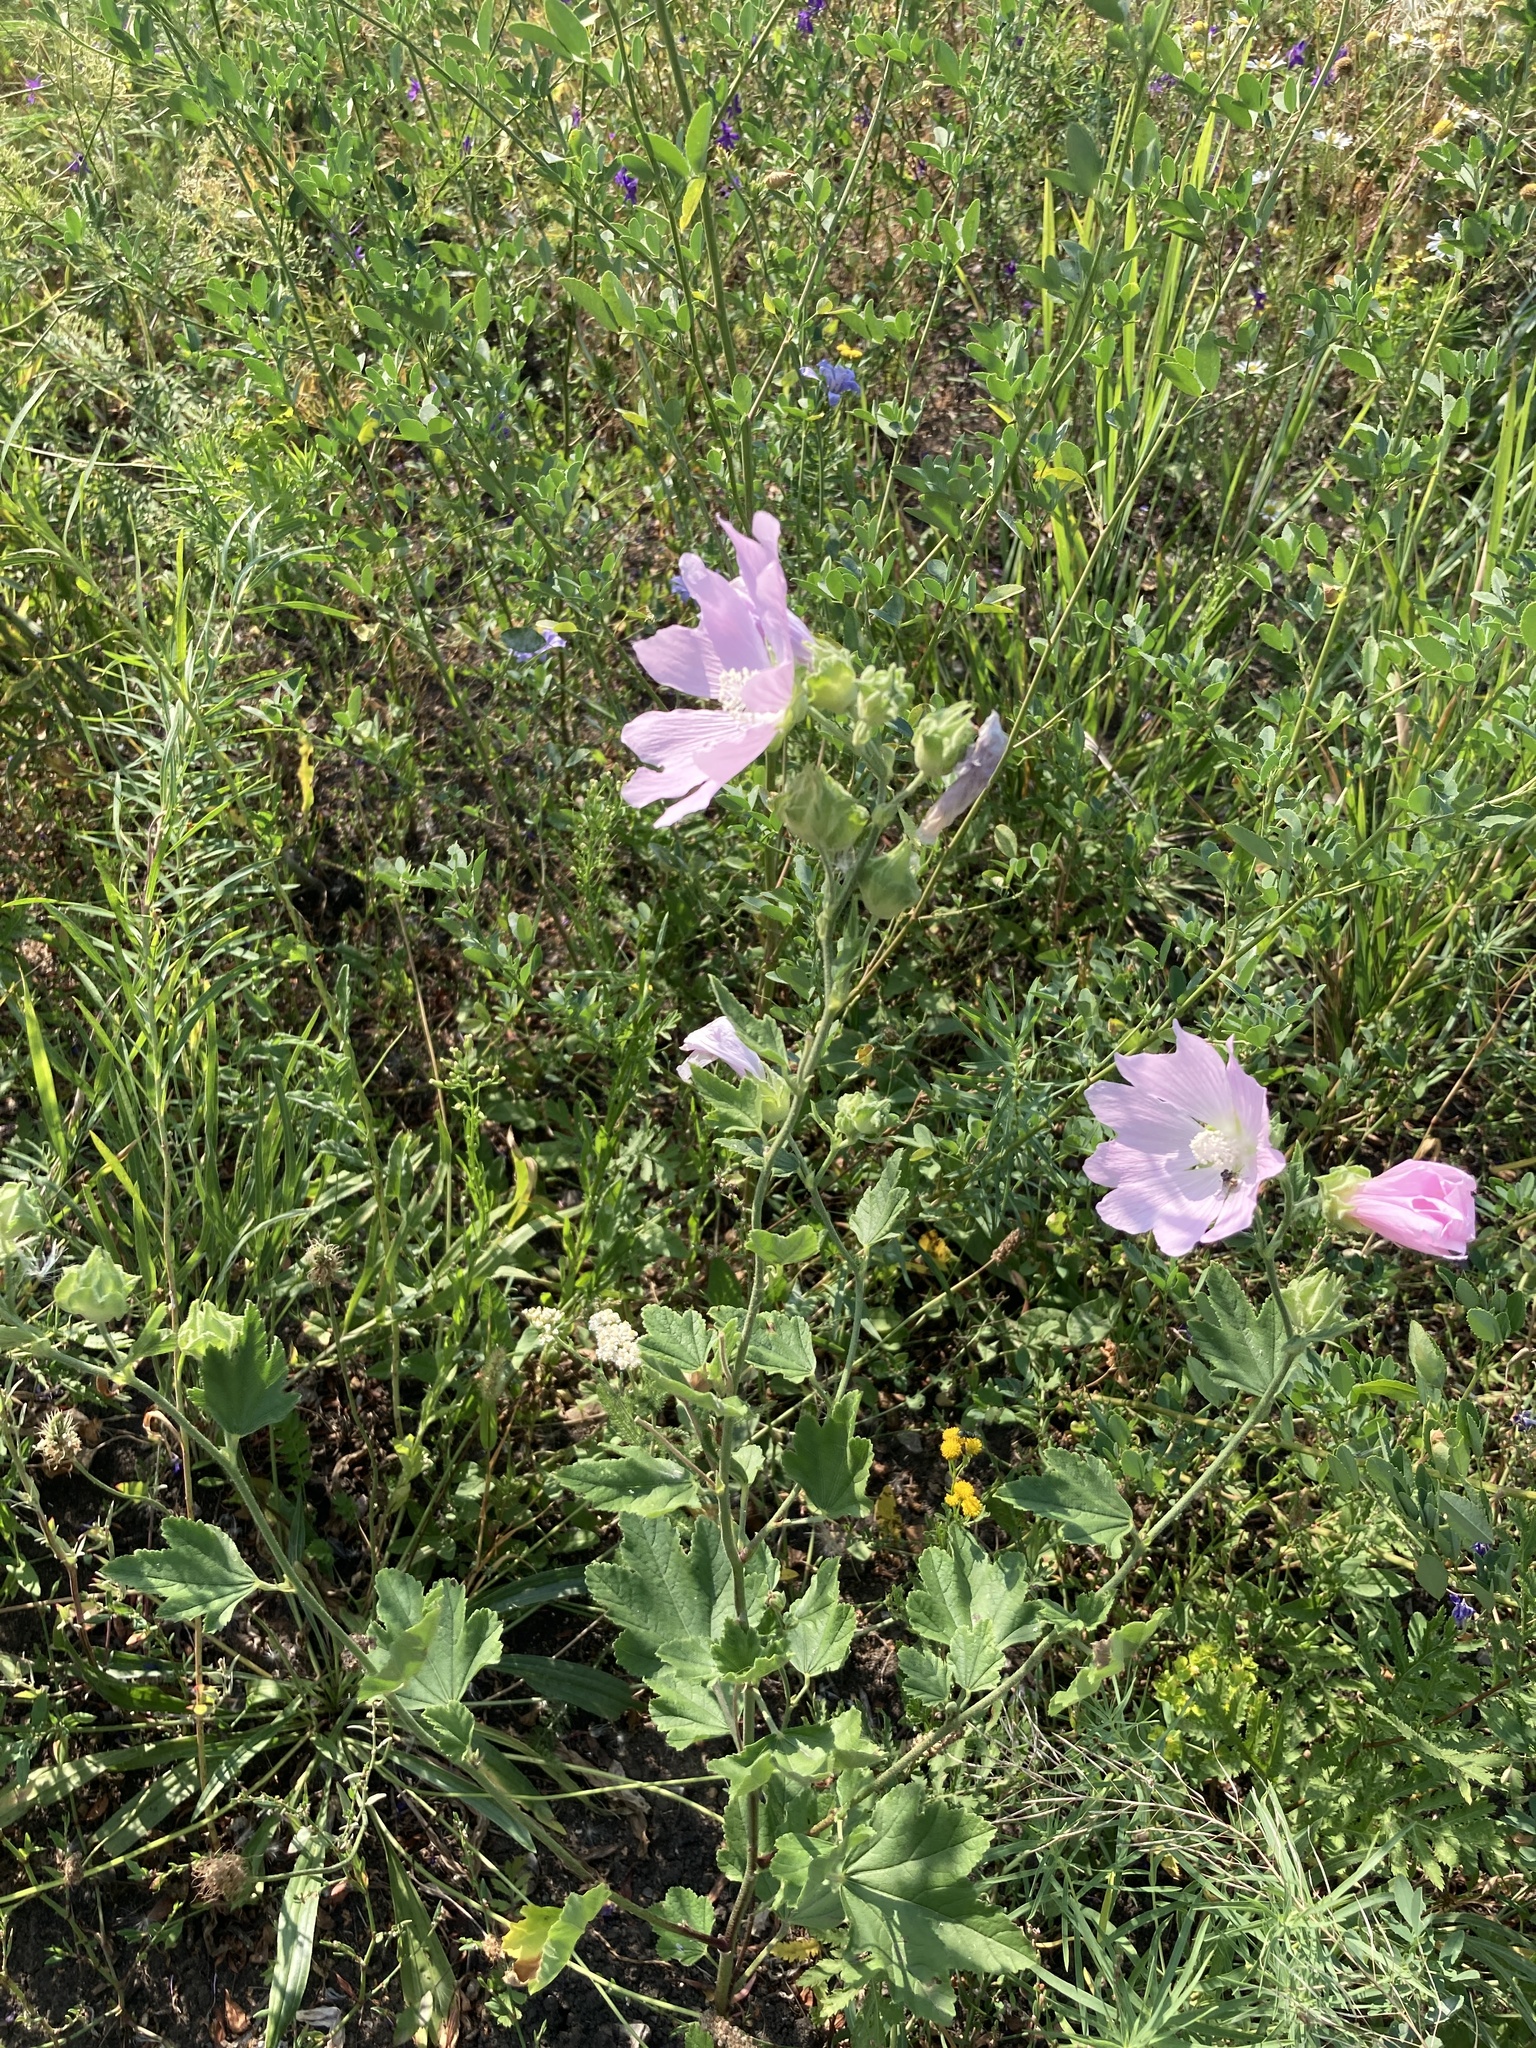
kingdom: Plantae
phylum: Tracheophyta
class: Magnoliopsida
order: Malvales
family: Malvaceae
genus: Malva
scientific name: Malva thuringiaca
